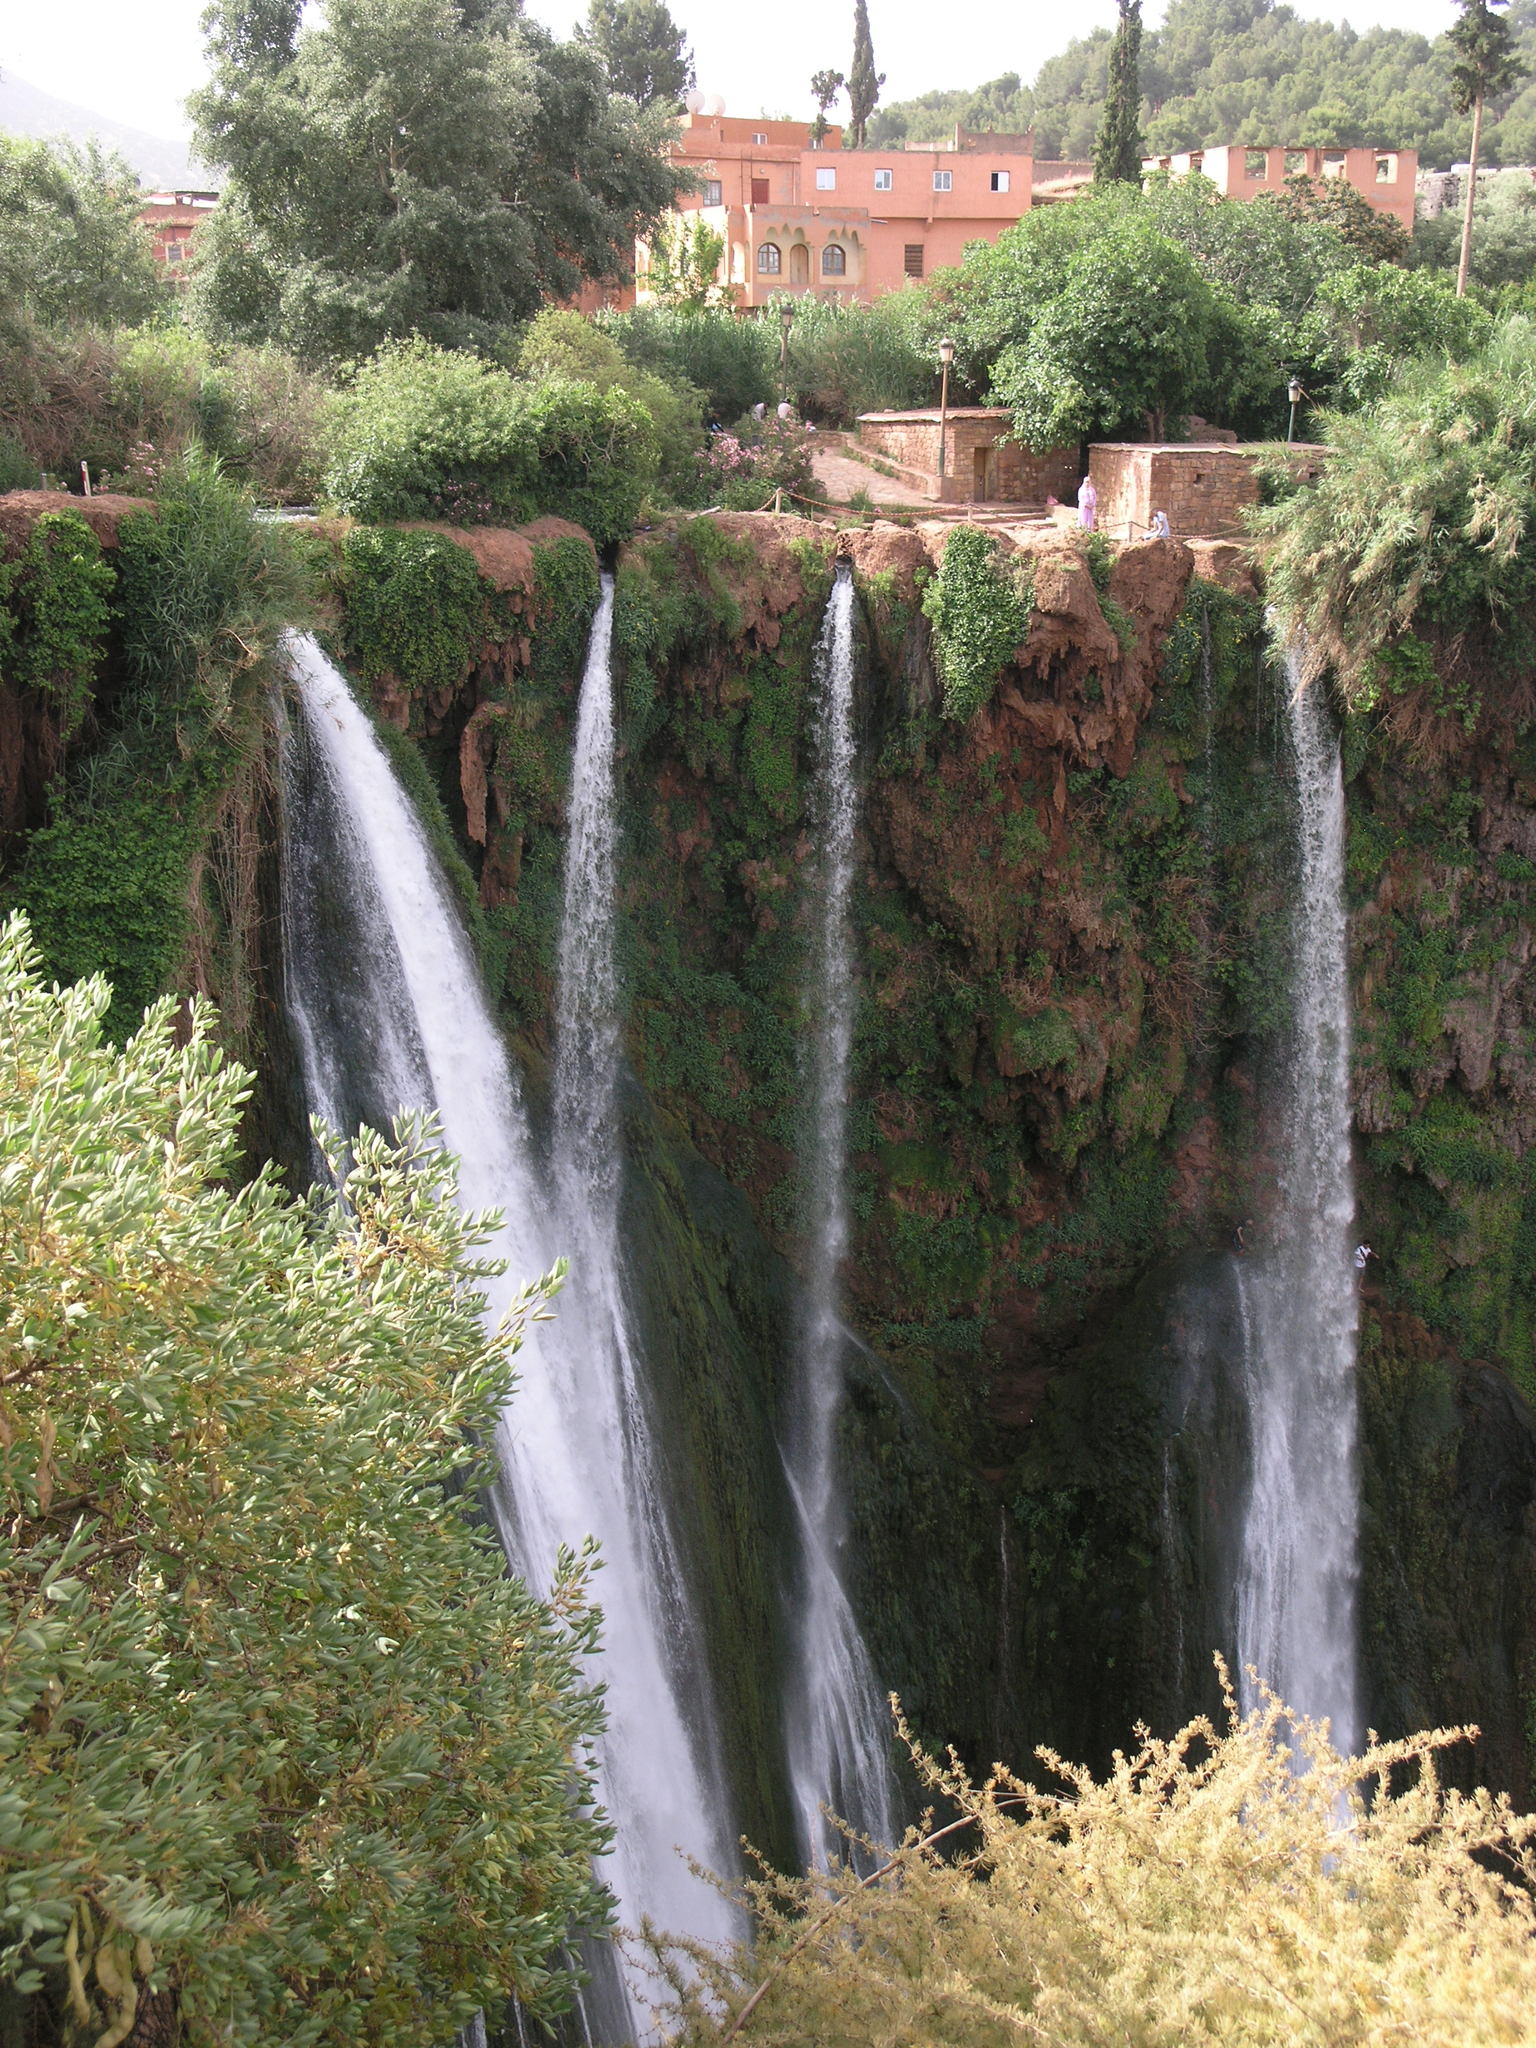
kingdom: Plantae
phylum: Tracheophyta
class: Liliopsida
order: Asparagales
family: Asparagaceae
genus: Asparagus
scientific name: Asparagus albus
